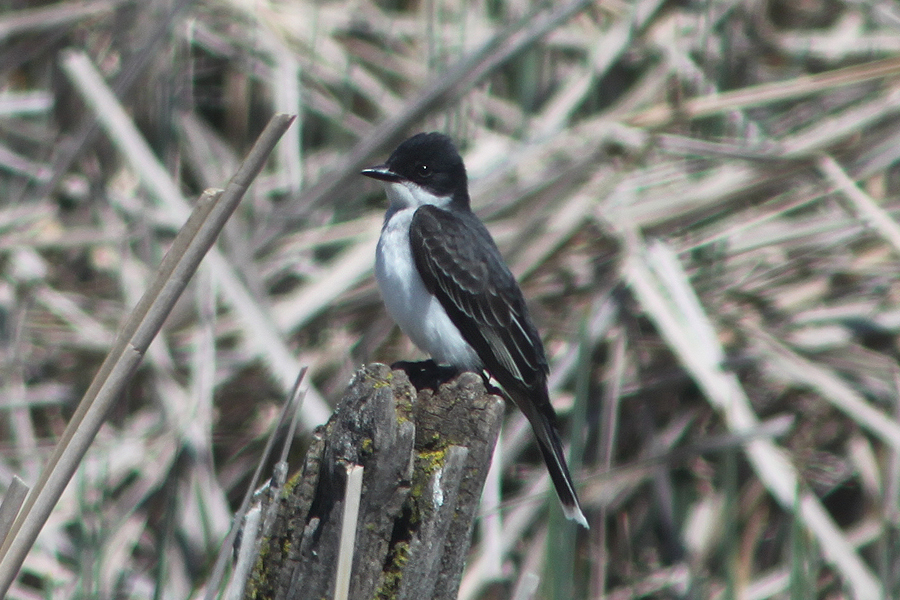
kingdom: Animalia
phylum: Chordata
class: Aves
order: Passeriformes
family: Tyrannidae
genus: Tyrannus
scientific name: Tyrannus tyrannus
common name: Eastern kingbird
